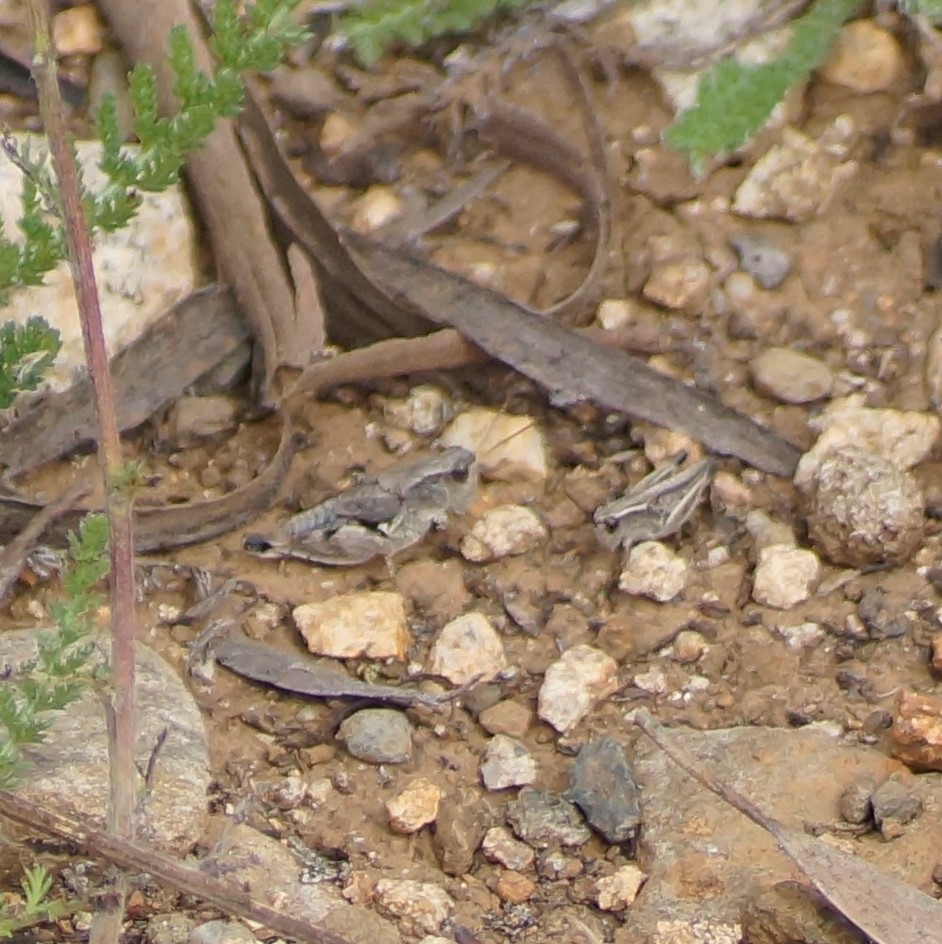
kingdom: Animalia
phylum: Arthropoda
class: Insecta
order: Orthoptera
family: Acrididae
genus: Phaulacridium
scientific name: Phaulacridium vittatum
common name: Wingless grasshopper
